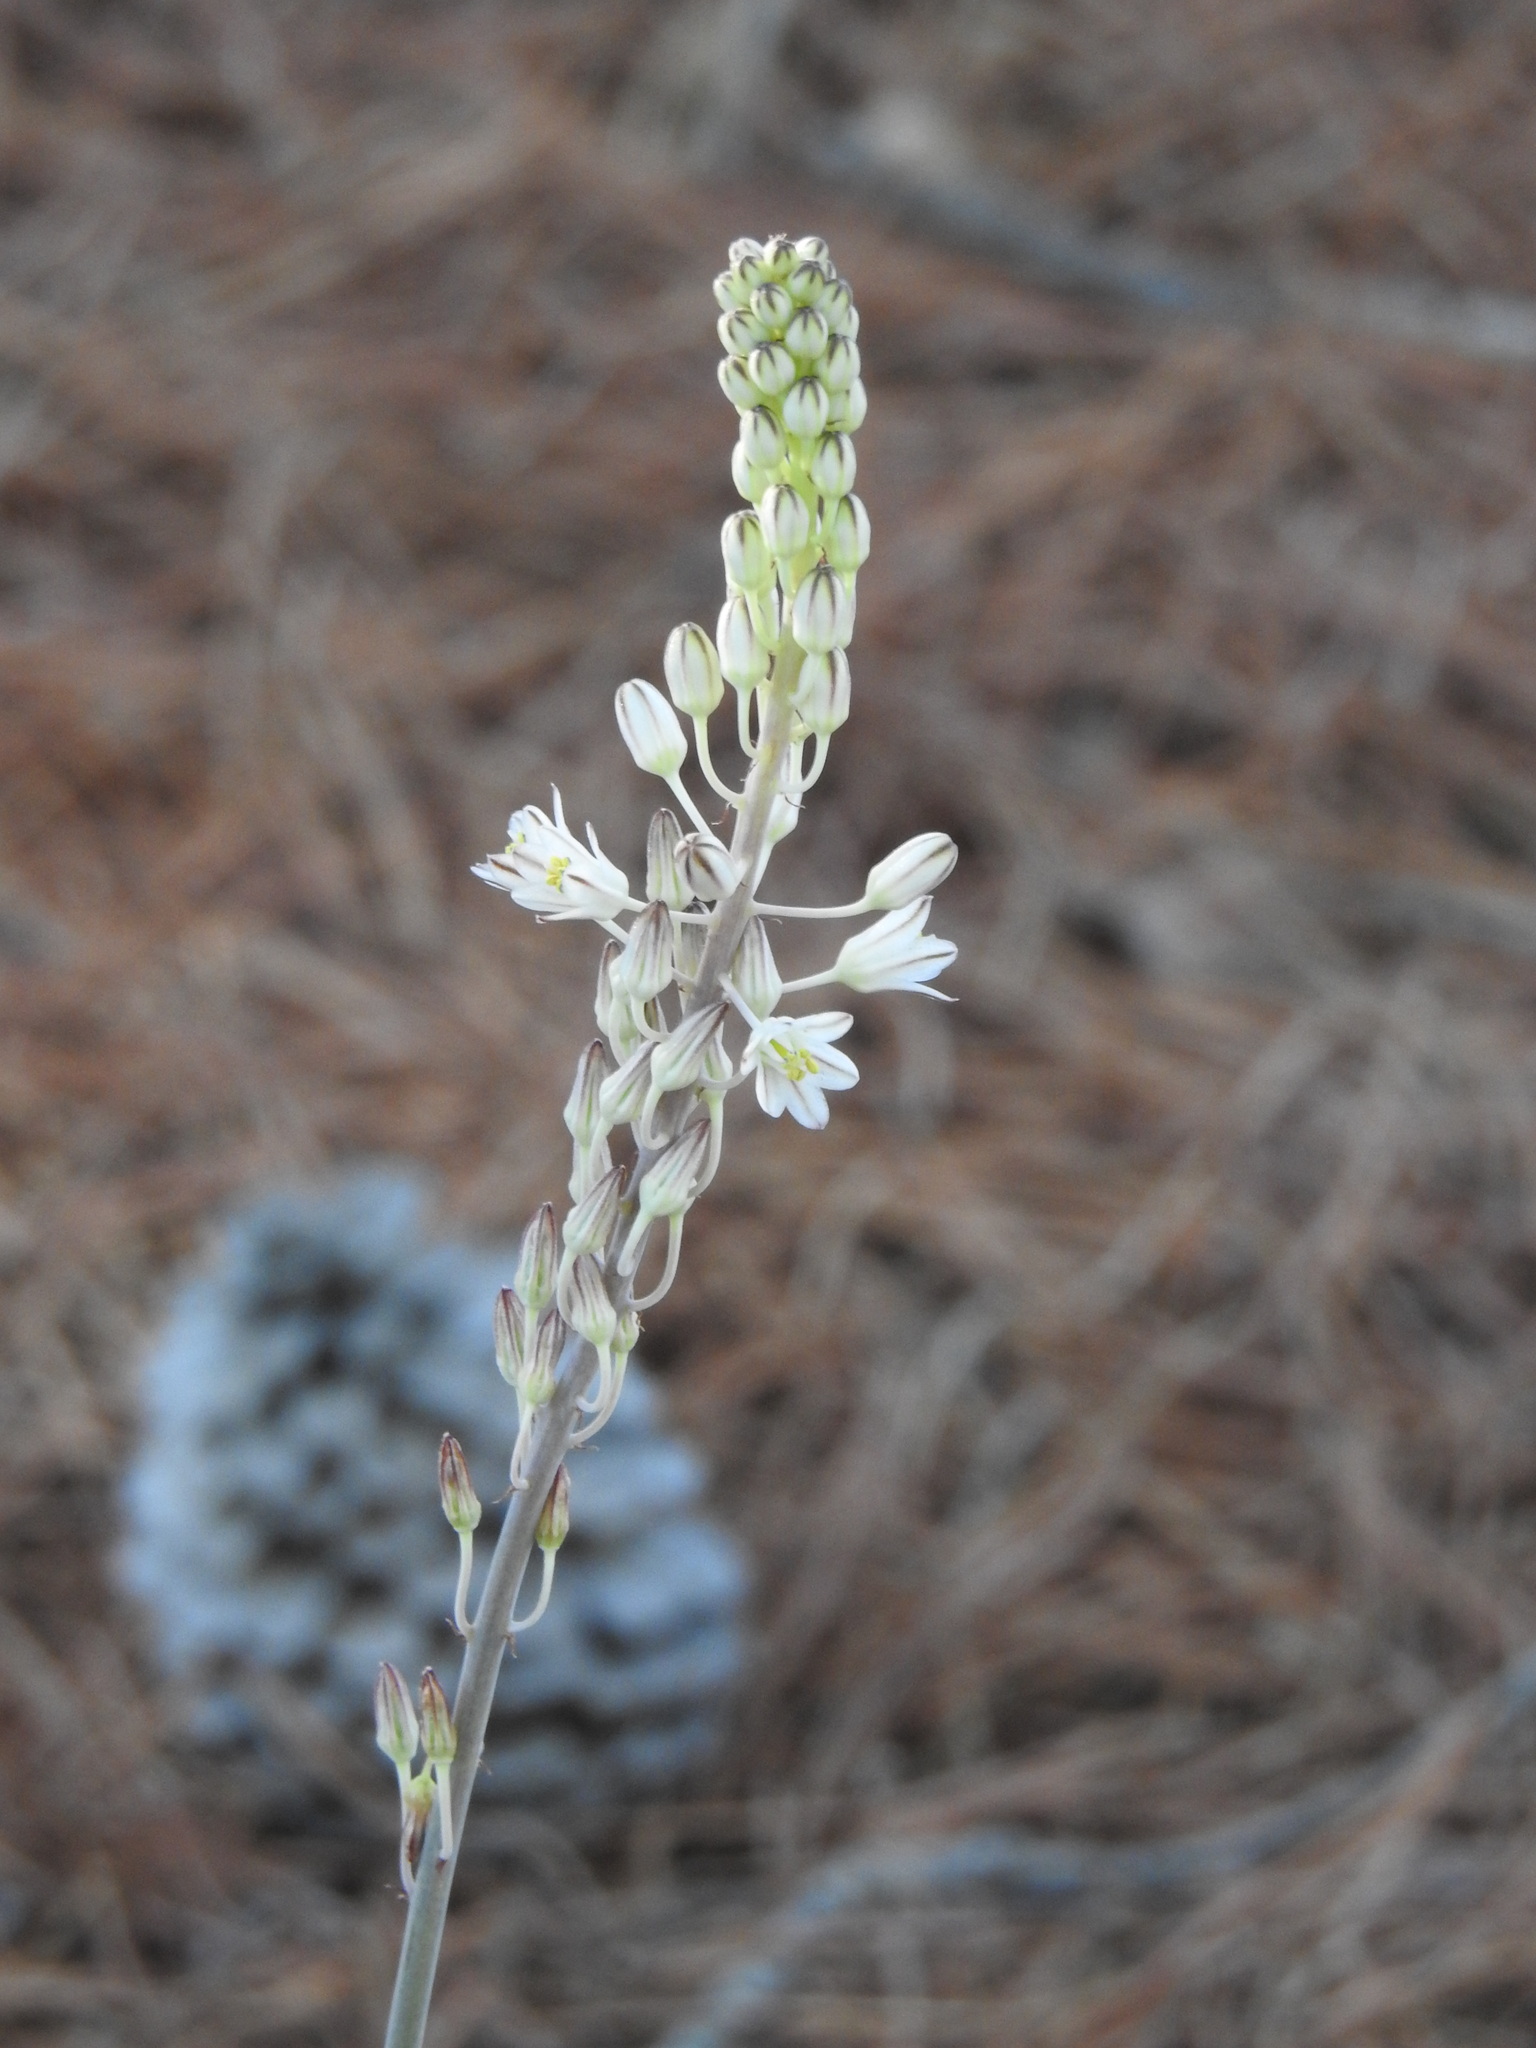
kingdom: Plantae
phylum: Tracheophyta
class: Liliopsida
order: Asparagales
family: Asparagaceae
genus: Drimia
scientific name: Drimia maritima
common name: Maritime squill
